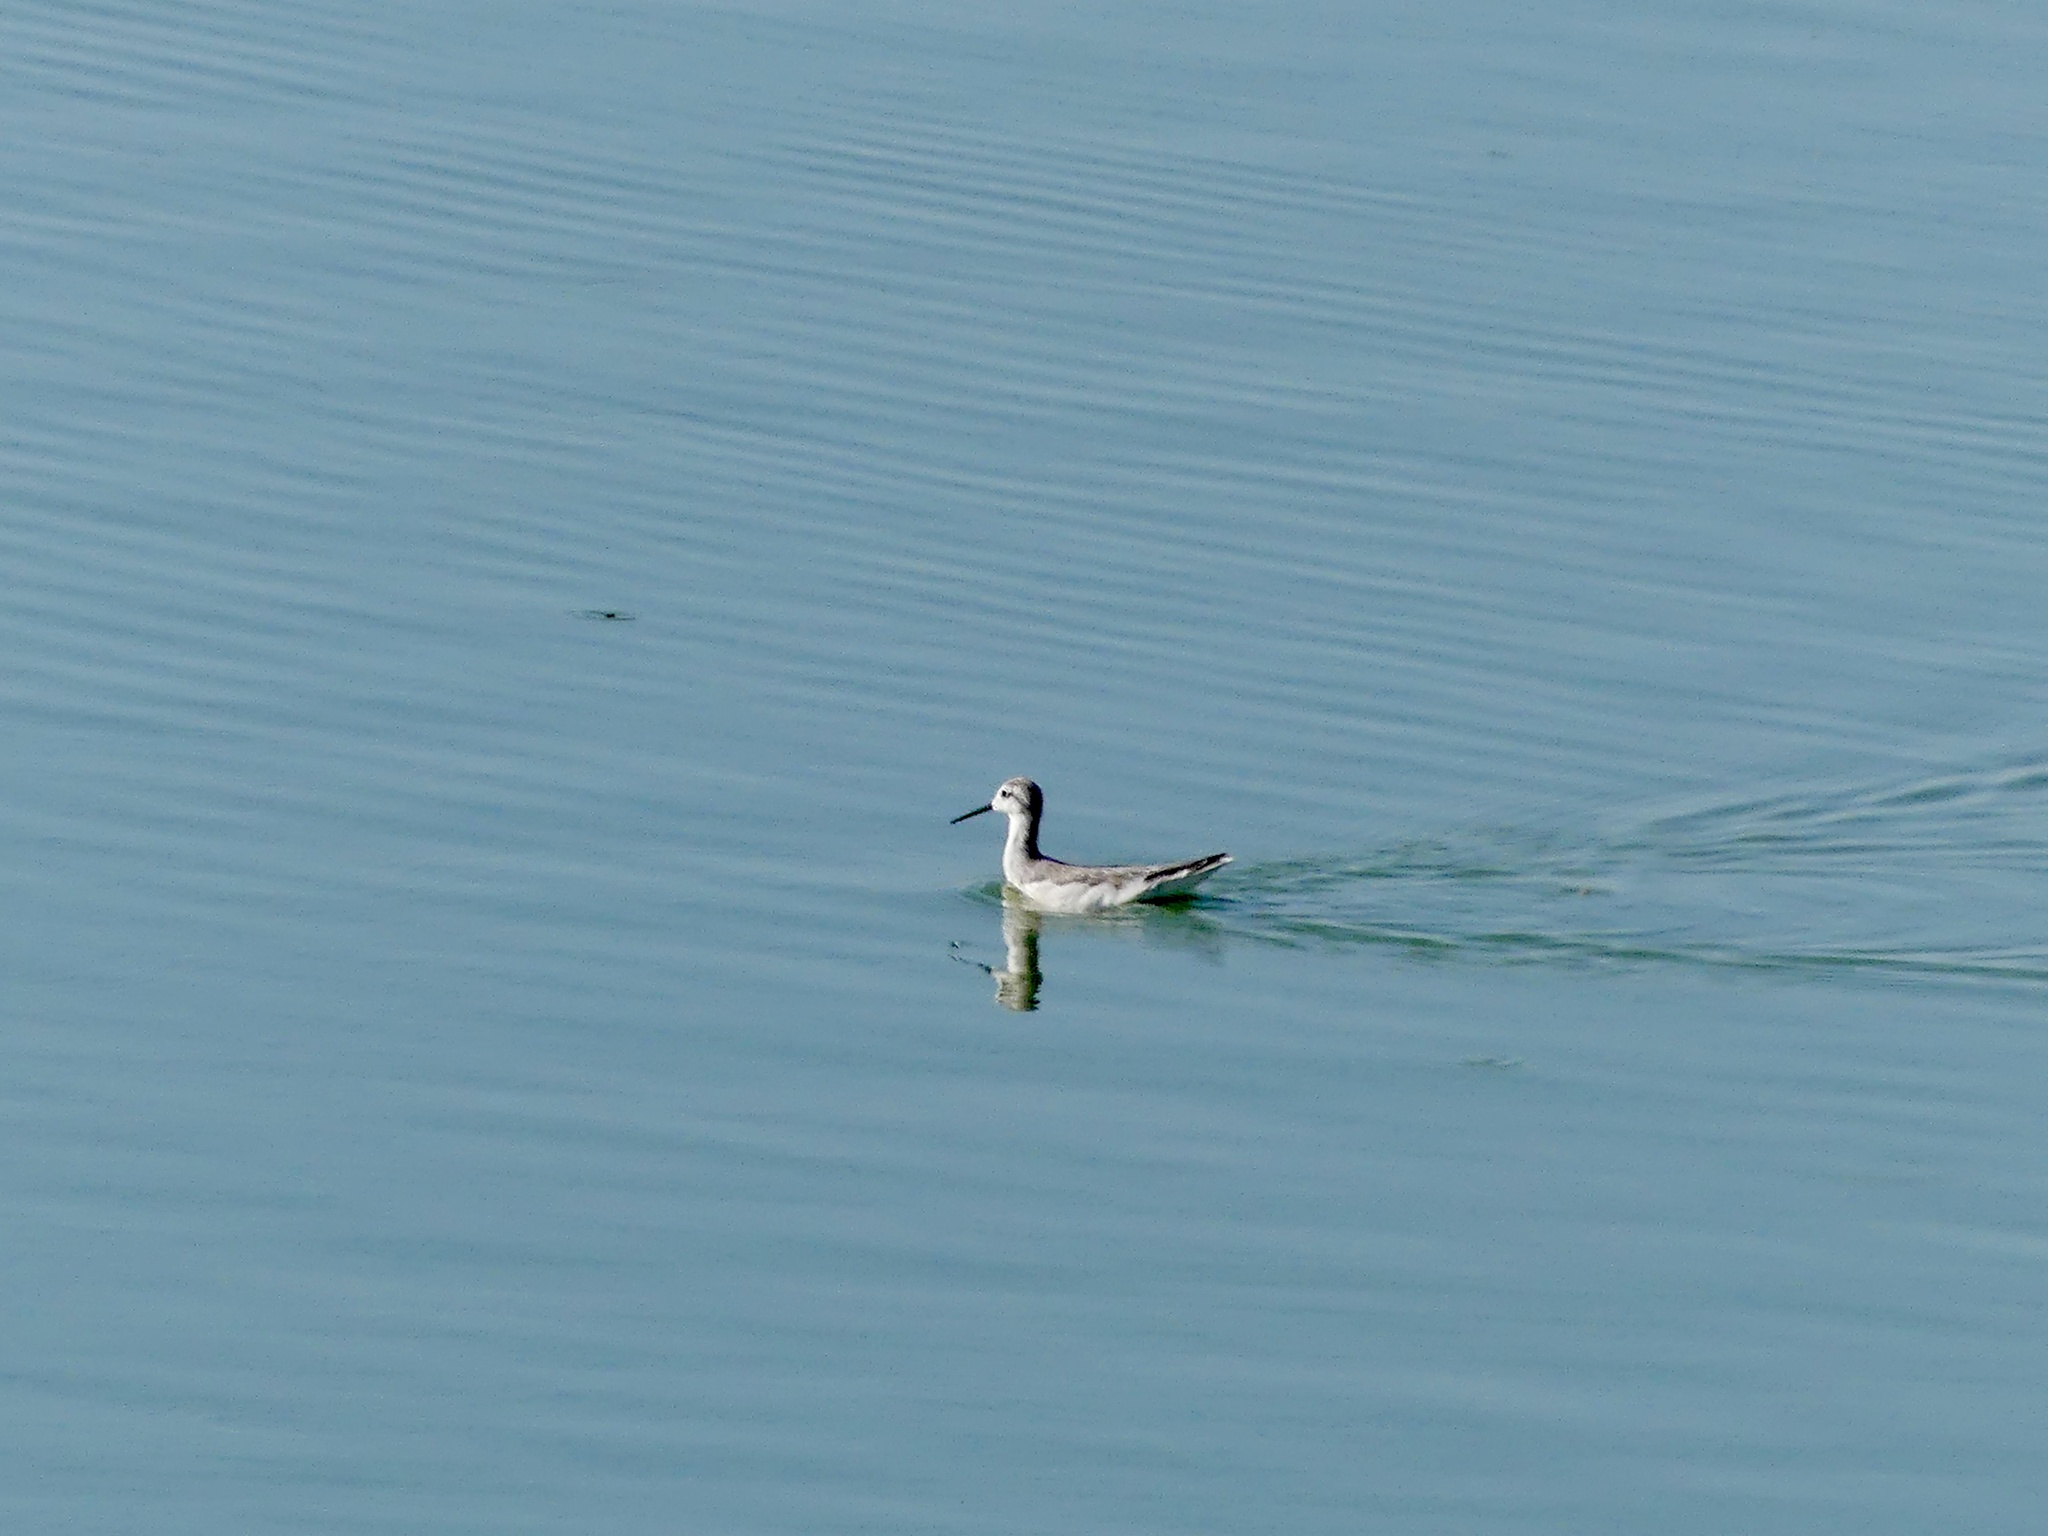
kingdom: Animalia
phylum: Chordata
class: Aves
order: Charadriiformes
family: Scolopacidae
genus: Phalaropus
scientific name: Phalaropus tricolor
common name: Wilson's phalarope
